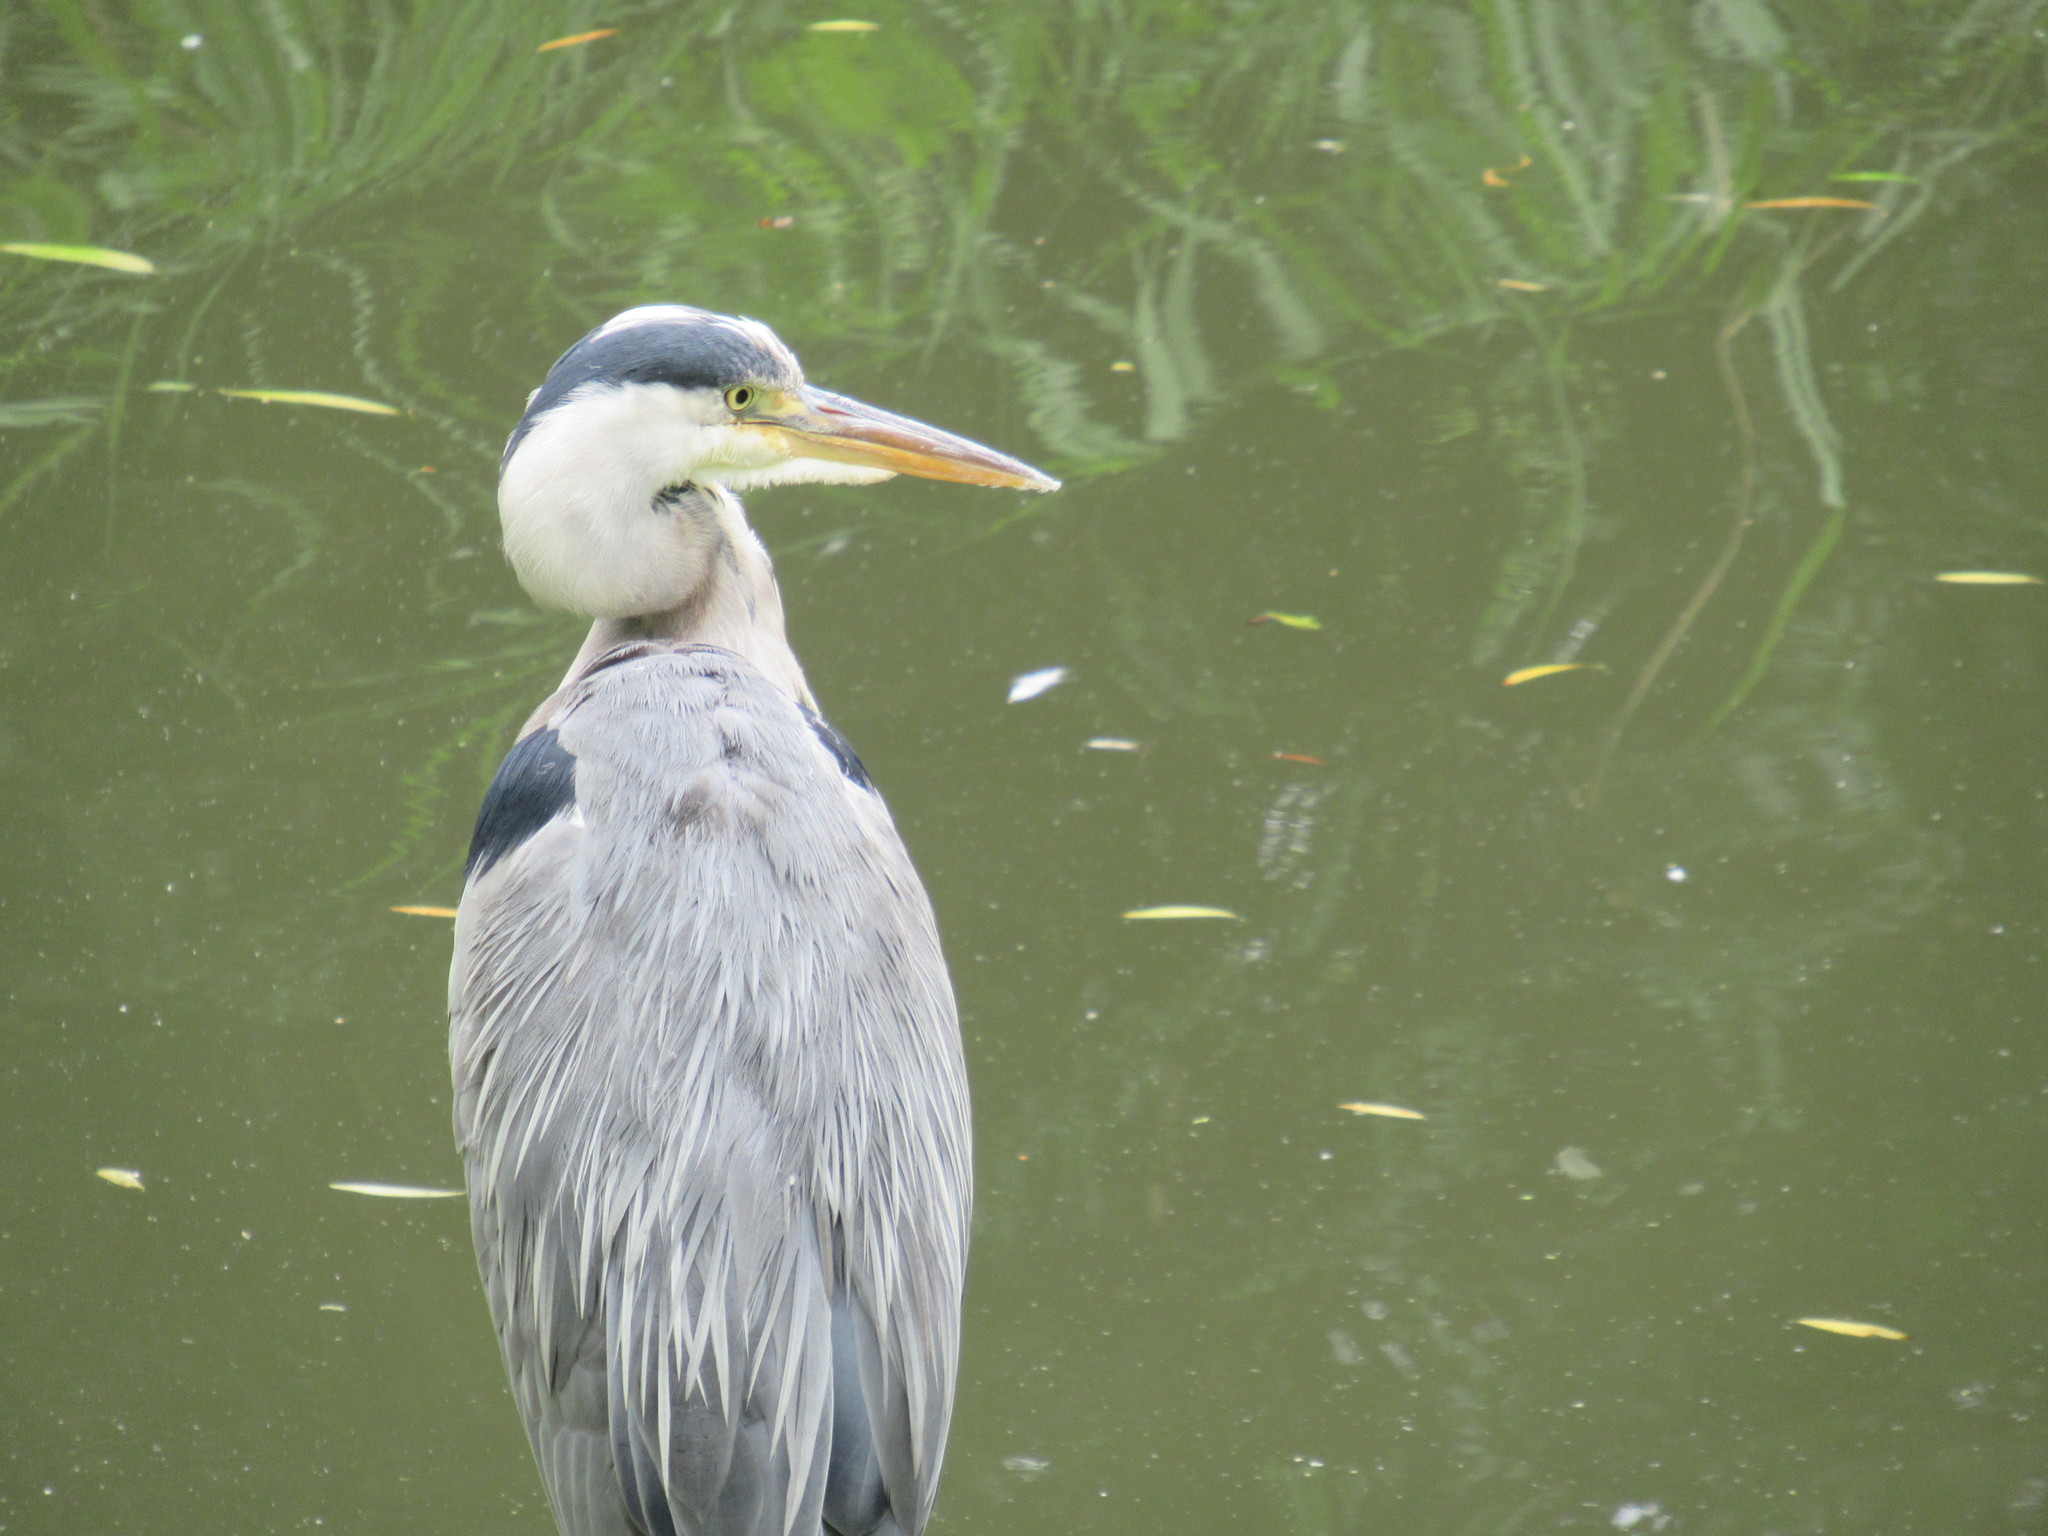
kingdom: Animalia
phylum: Chordata
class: Aves
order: Pelecaniformes
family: Ardeidae
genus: Ardea
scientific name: Ardea cinerea
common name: Grey heron
